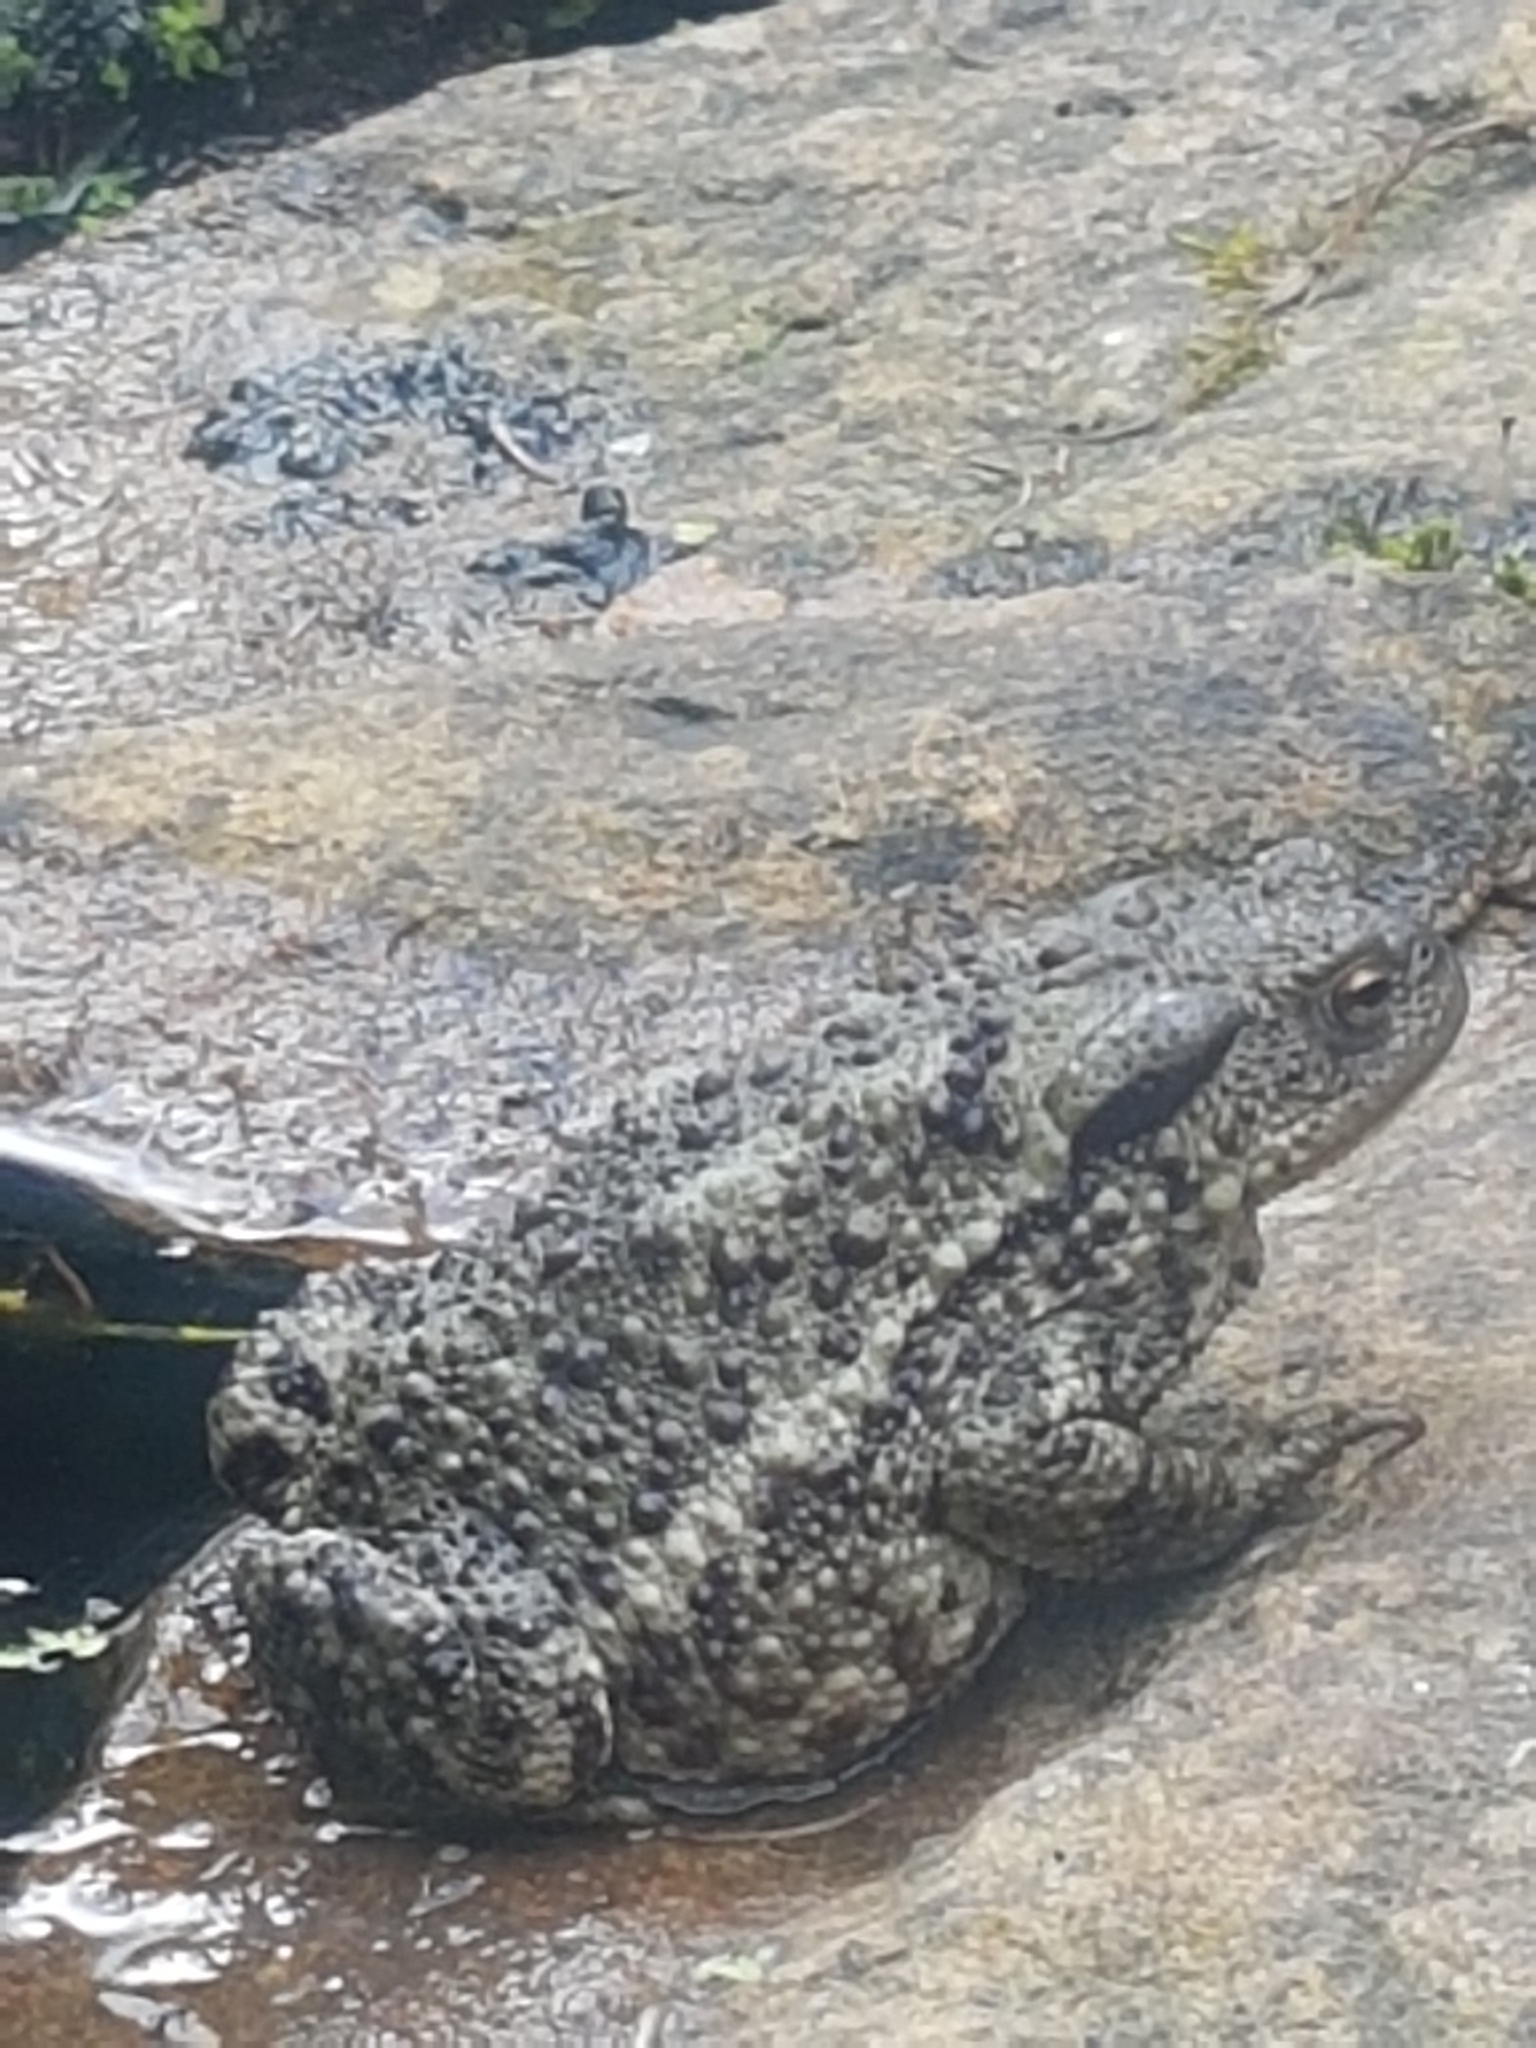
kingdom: Animalia
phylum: Chordata
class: Amphibia
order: Anura
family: Bufonidae
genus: Bufo
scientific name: Bufo bufo
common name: Common toad
